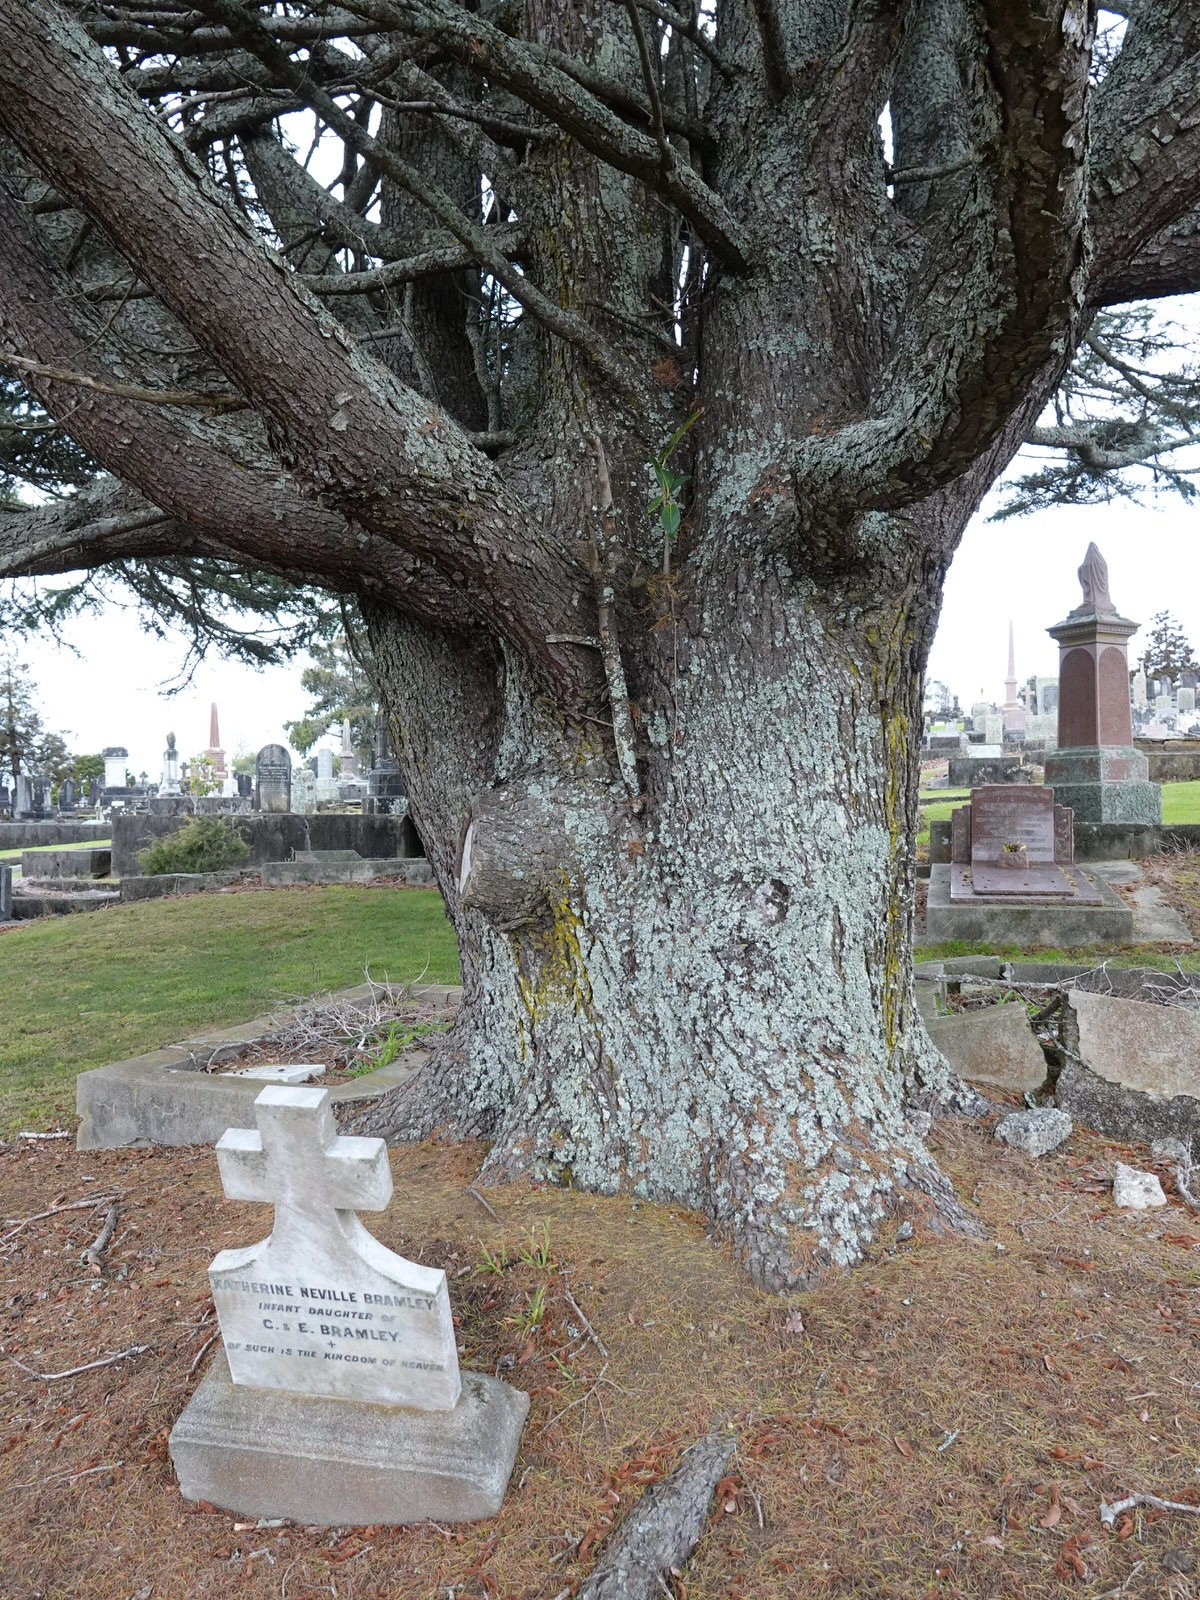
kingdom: Plantae
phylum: Tracheophyta
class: Magnoliopsida
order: Rosales
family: Moraceae
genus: Ficus
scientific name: Ficus macrophylla
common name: Moreton bay fig
